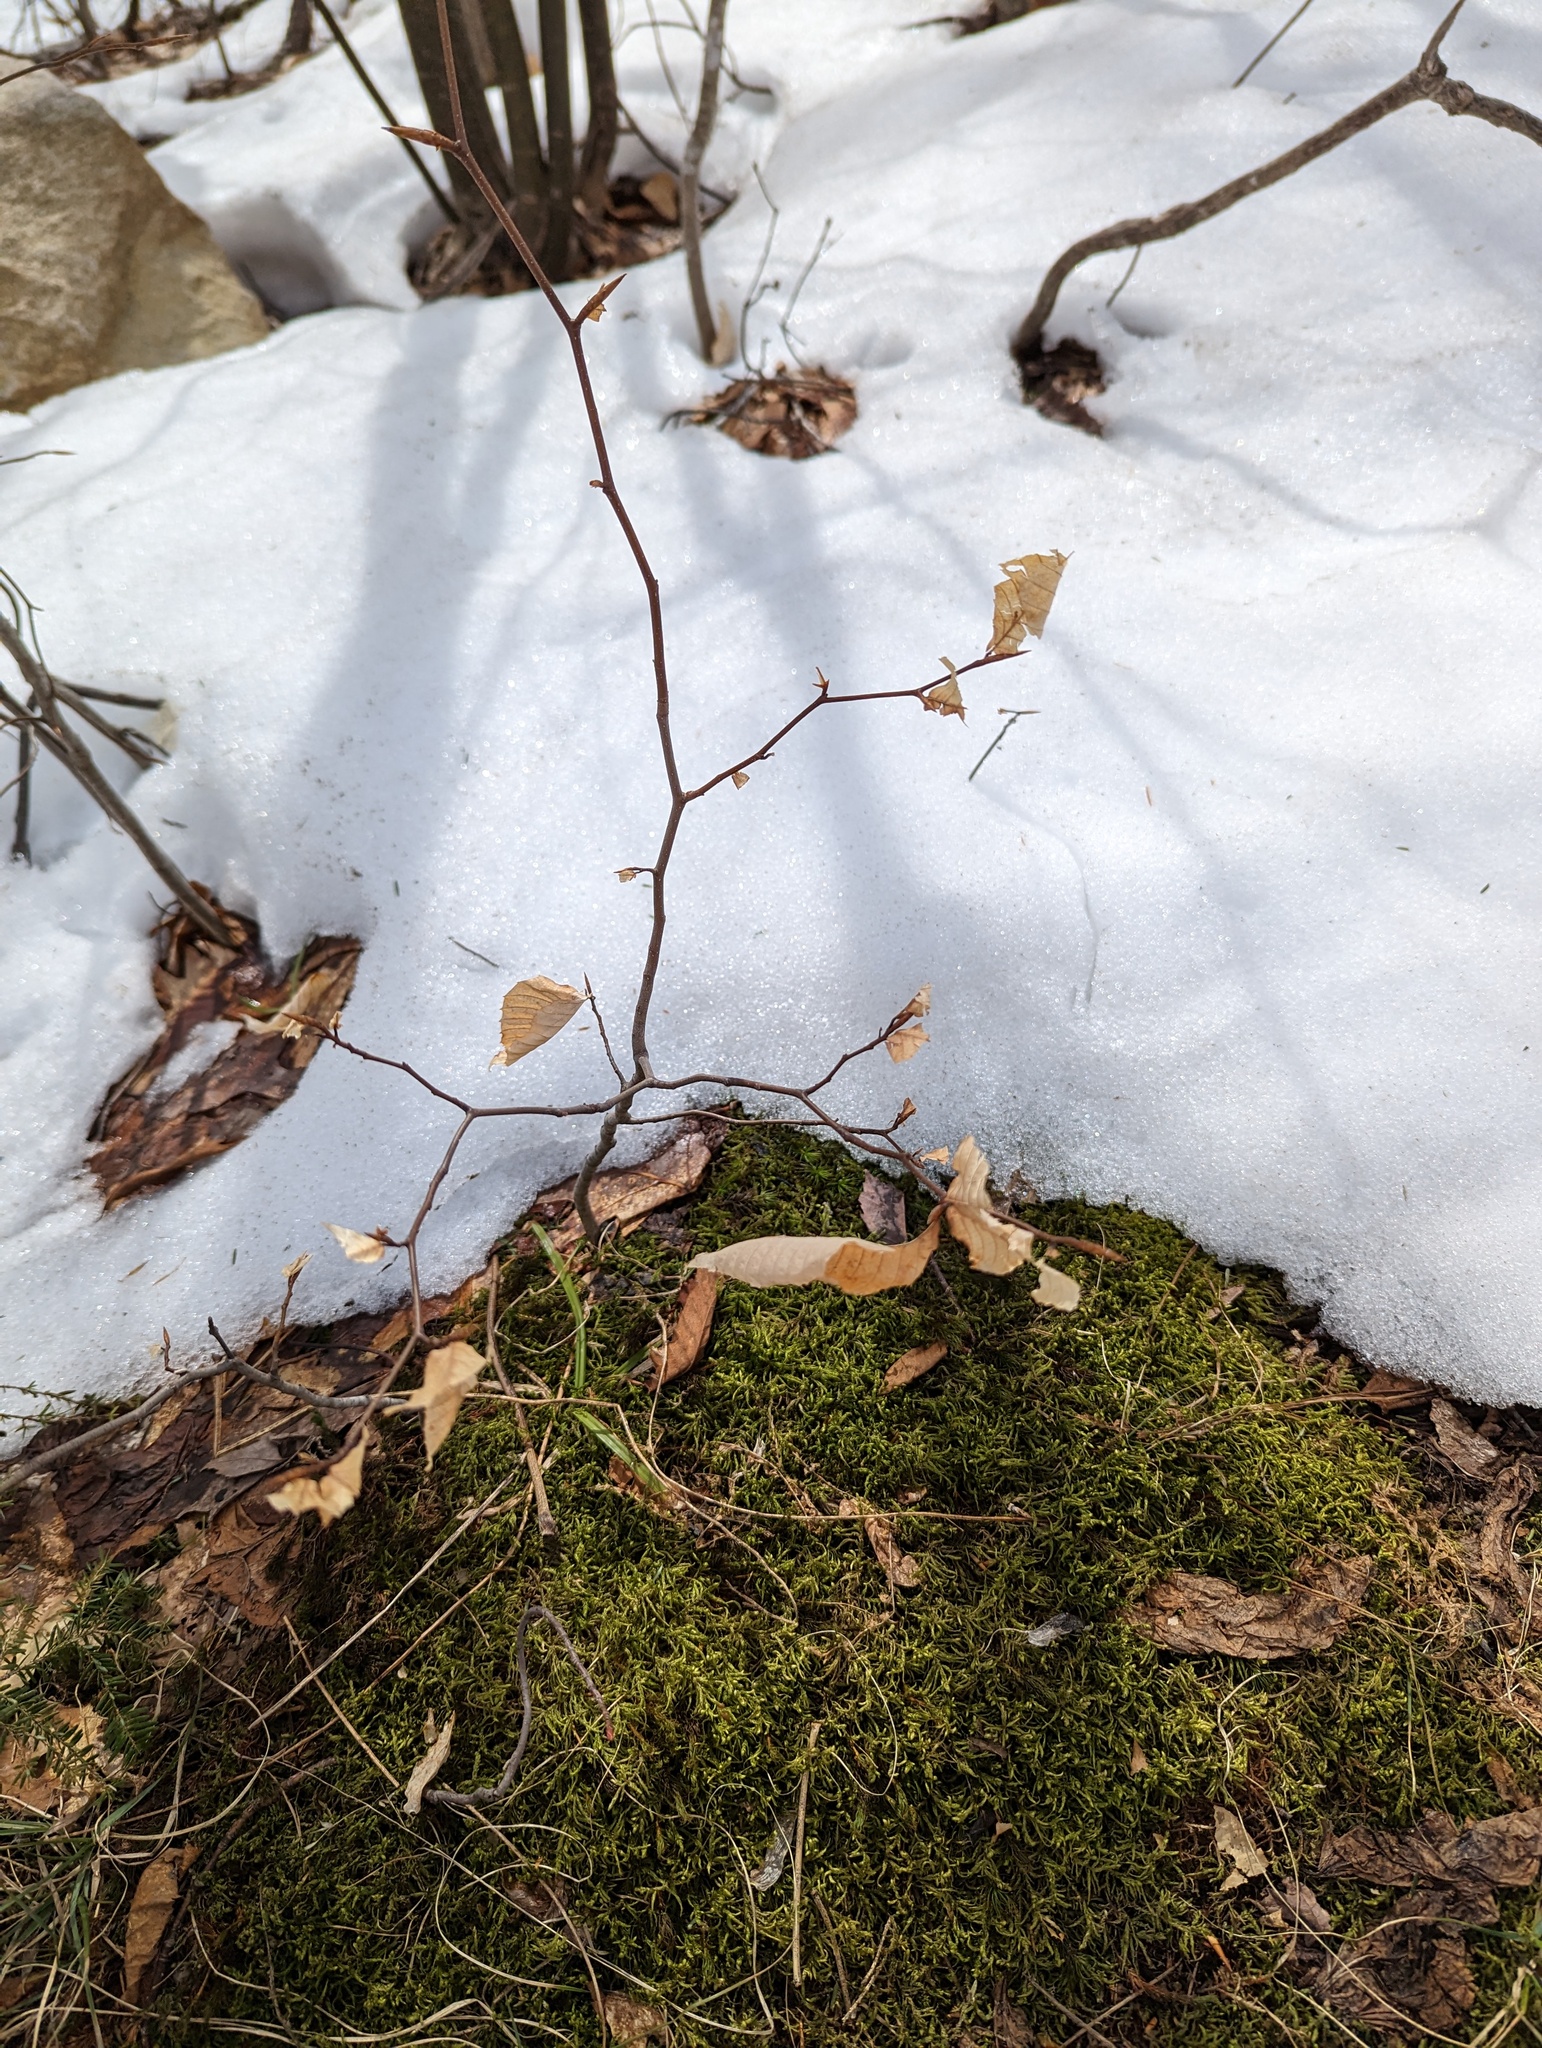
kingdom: Plantae
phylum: Tracheophyta
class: Magnoliopsida
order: Fagales
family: Fagaceae
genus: Fagus
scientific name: Fagus grandifolia
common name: American beech
